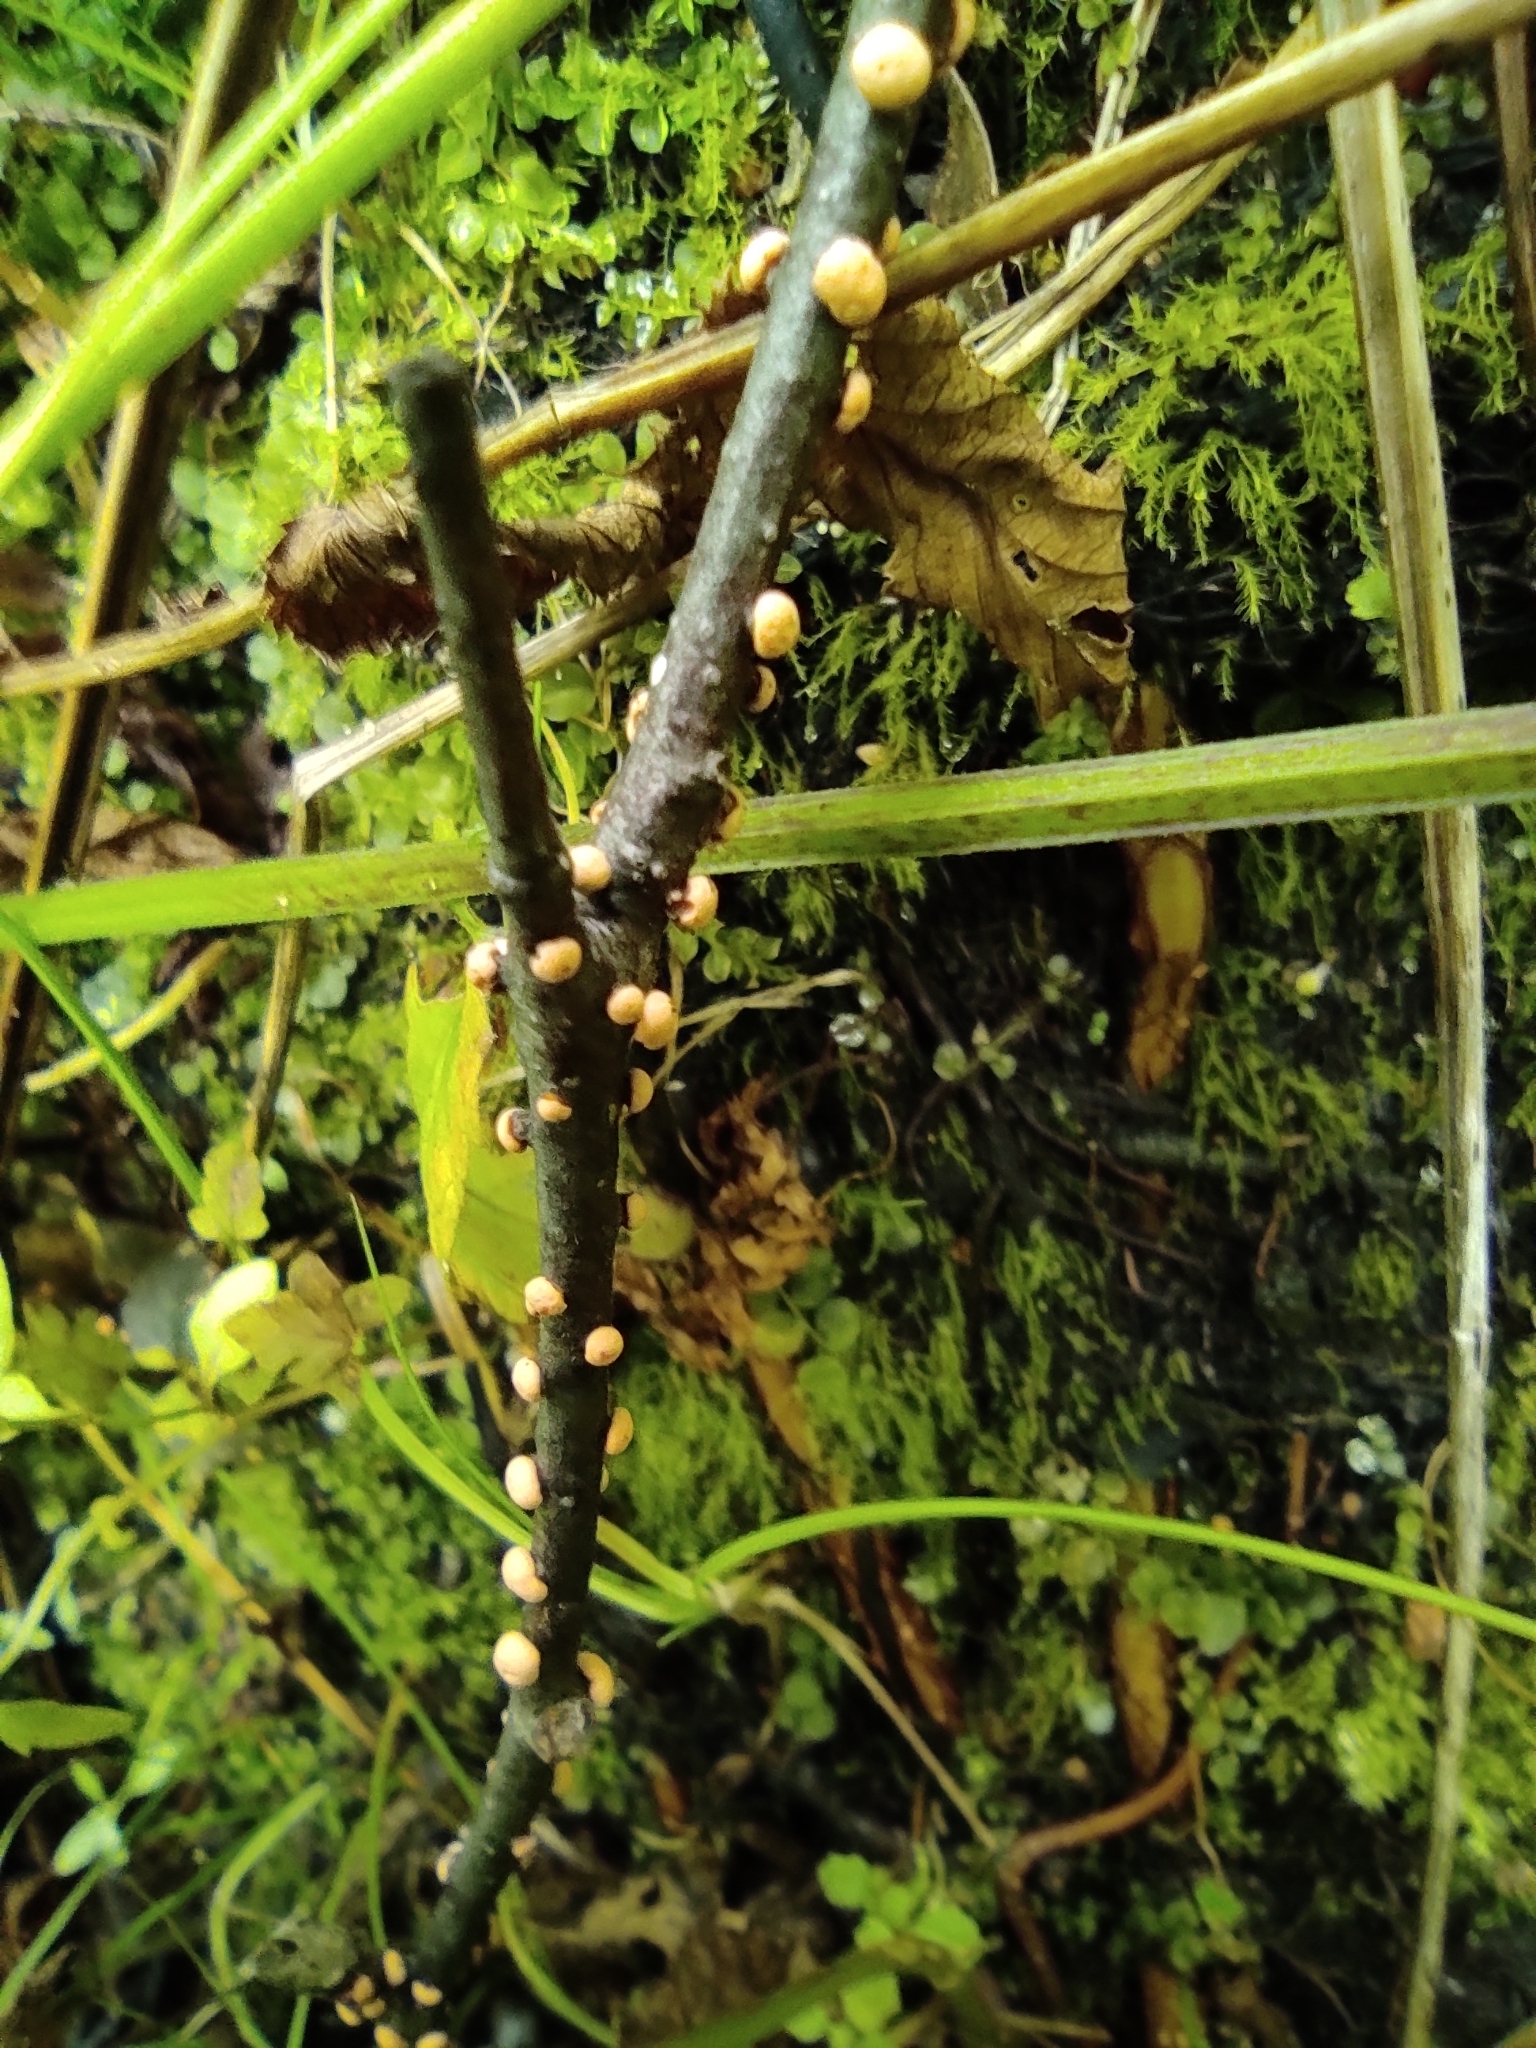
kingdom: Fungi
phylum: Ascomycota
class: Sordariomycetes
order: Hypocreales
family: Nectriaceae
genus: Nectria
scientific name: Nectria cinnabarina
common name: Coral spot
